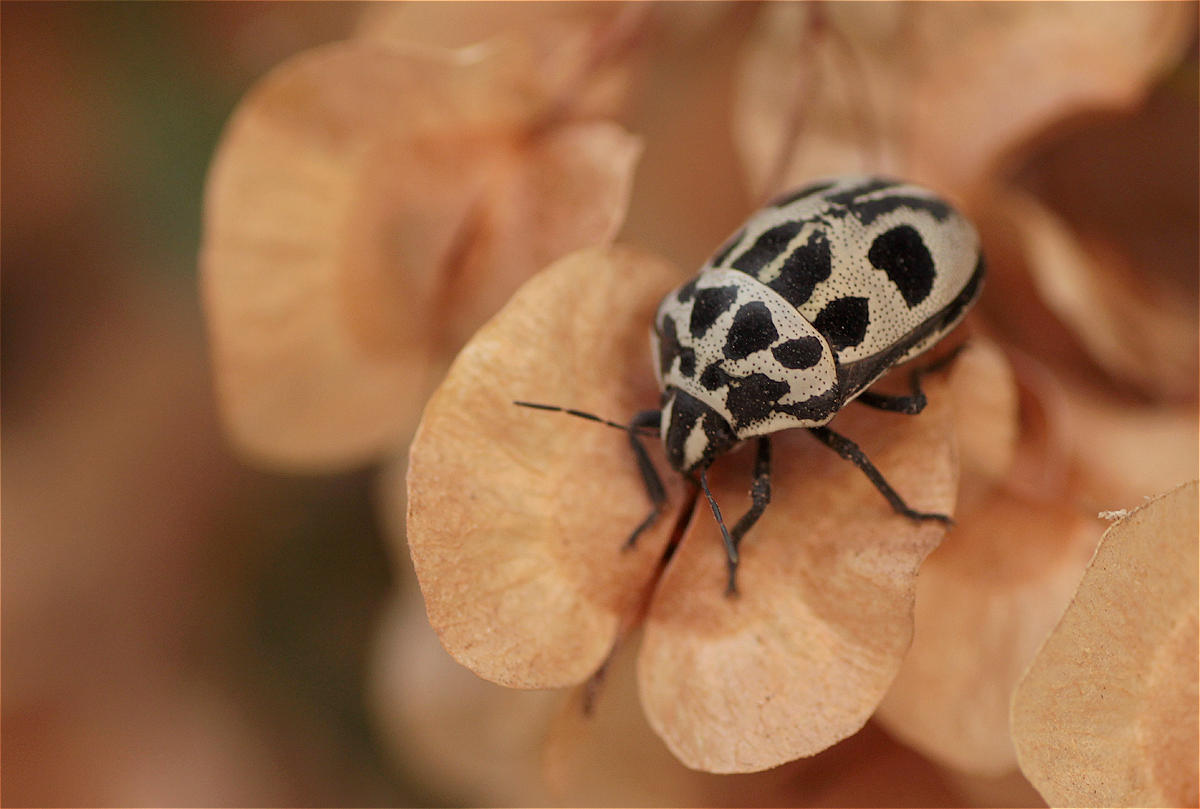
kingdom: Animalia
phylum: Arthropoda
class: Insecta
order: Hemiptera
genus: Deroplax
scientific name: Deroplax silphoides
